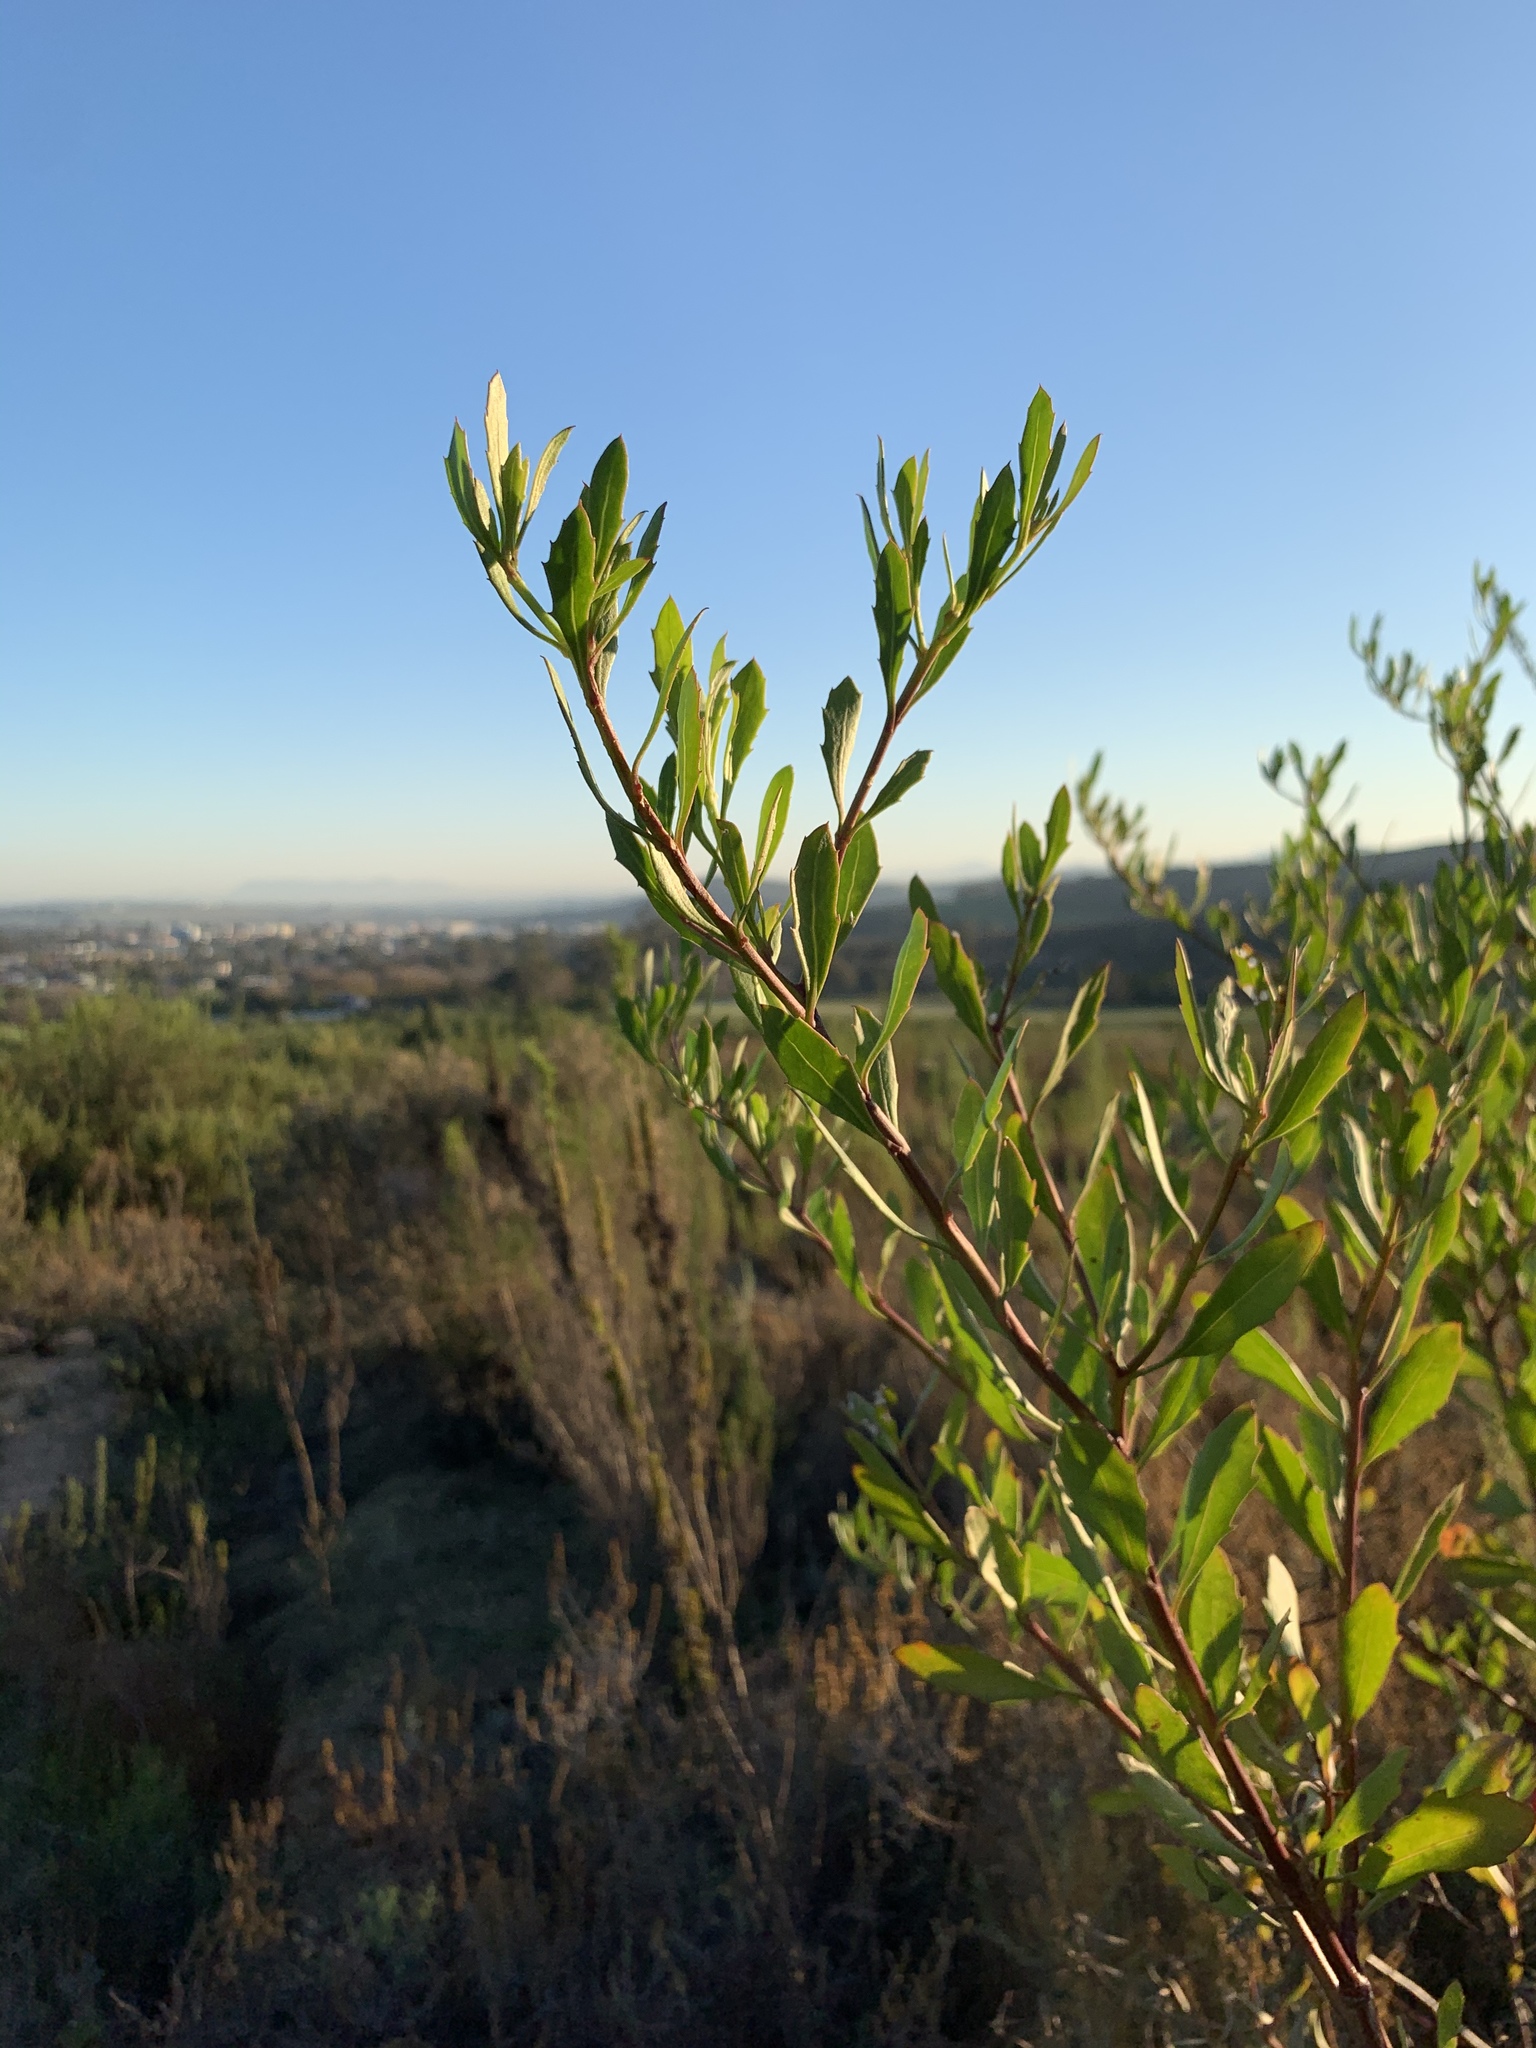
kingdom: Plantae
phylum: Tracheophyta
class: Magnoliopsida
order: Asterales
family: Asteraceae
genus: Osteospermum
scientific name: Osteospermum moniliferum
